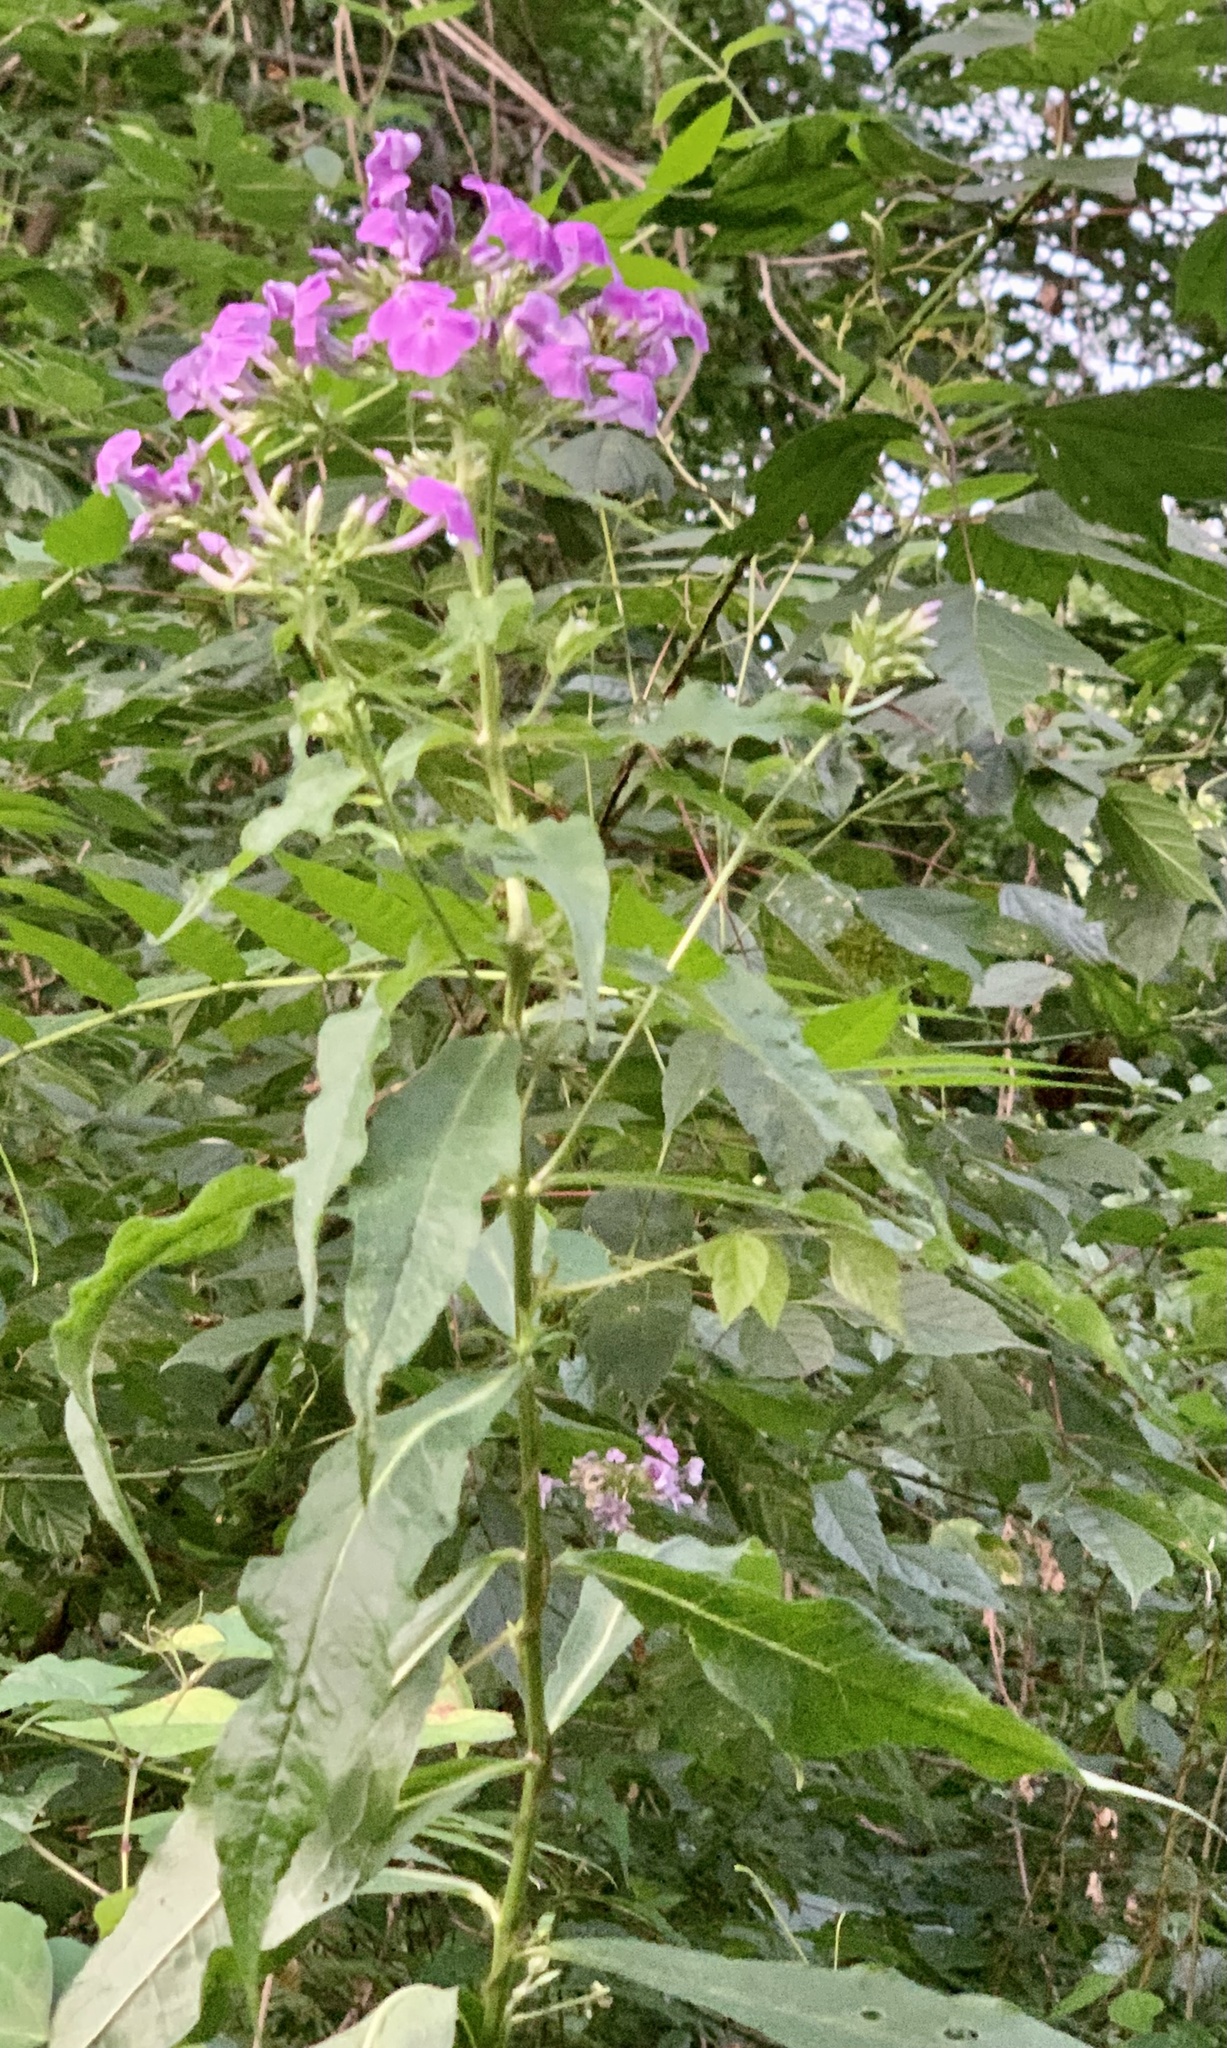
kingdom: Plantae
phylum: Tracheophyta
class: Magnoliopsida
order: Ericales
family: Polemoniaceae
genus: Phlox
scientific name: Phlox paniculata
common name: Fall phlox
